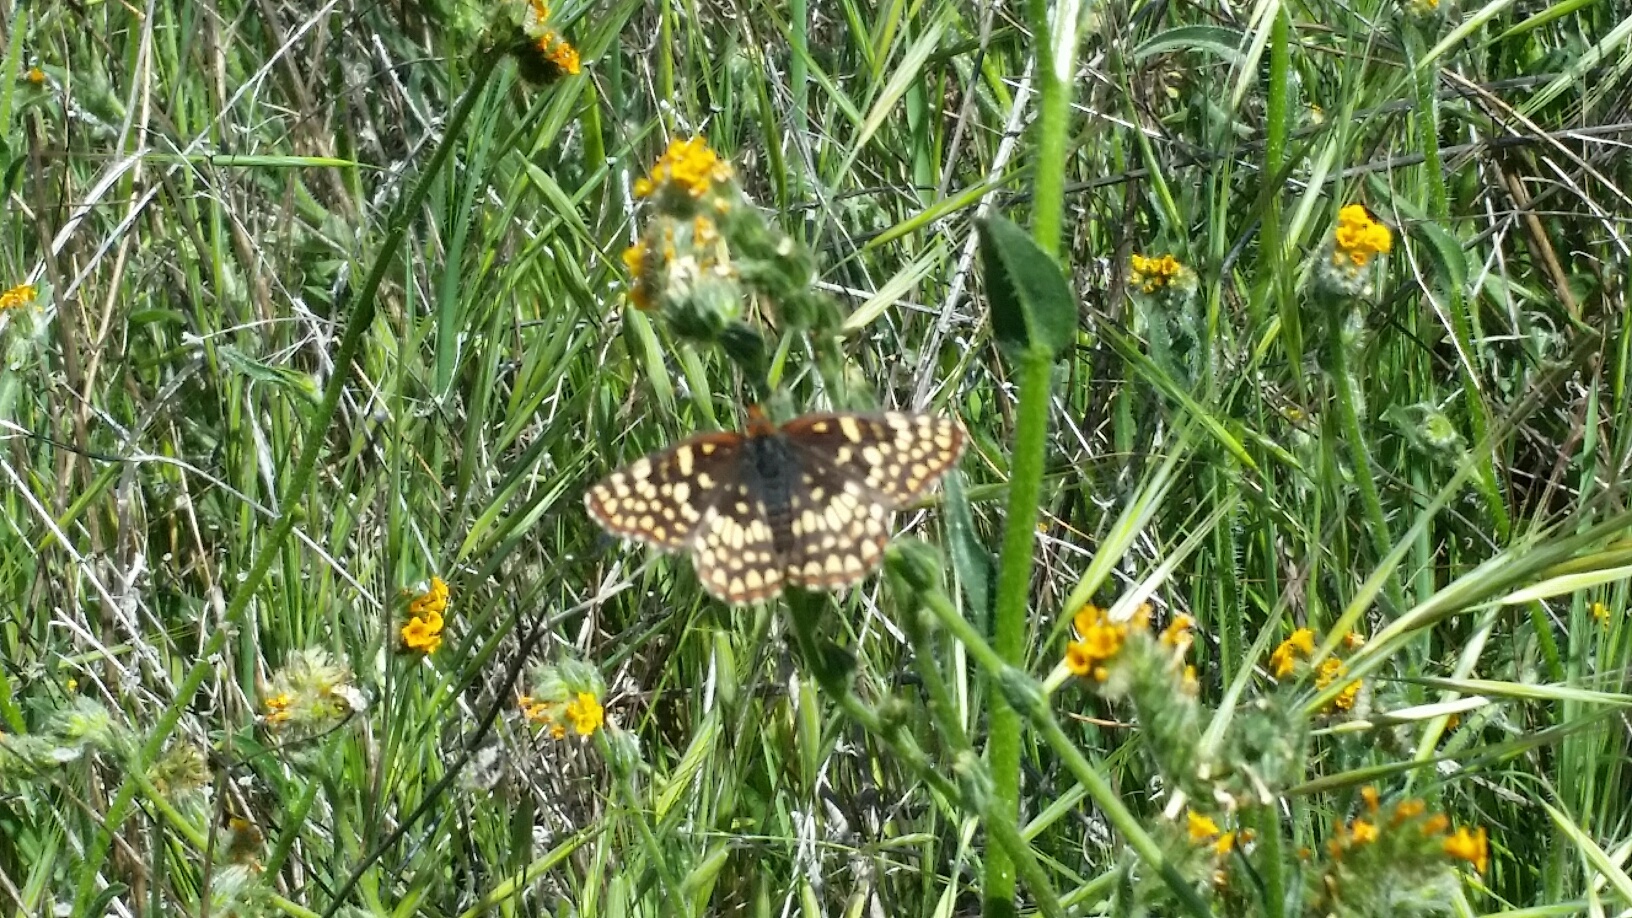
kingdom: Animalia
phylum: Arthropoda
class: Insecta
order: Lepidoptera
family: Nymphalidae
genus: Chlosyne
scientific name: Chlosyne palla
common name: Northern checkerspot
